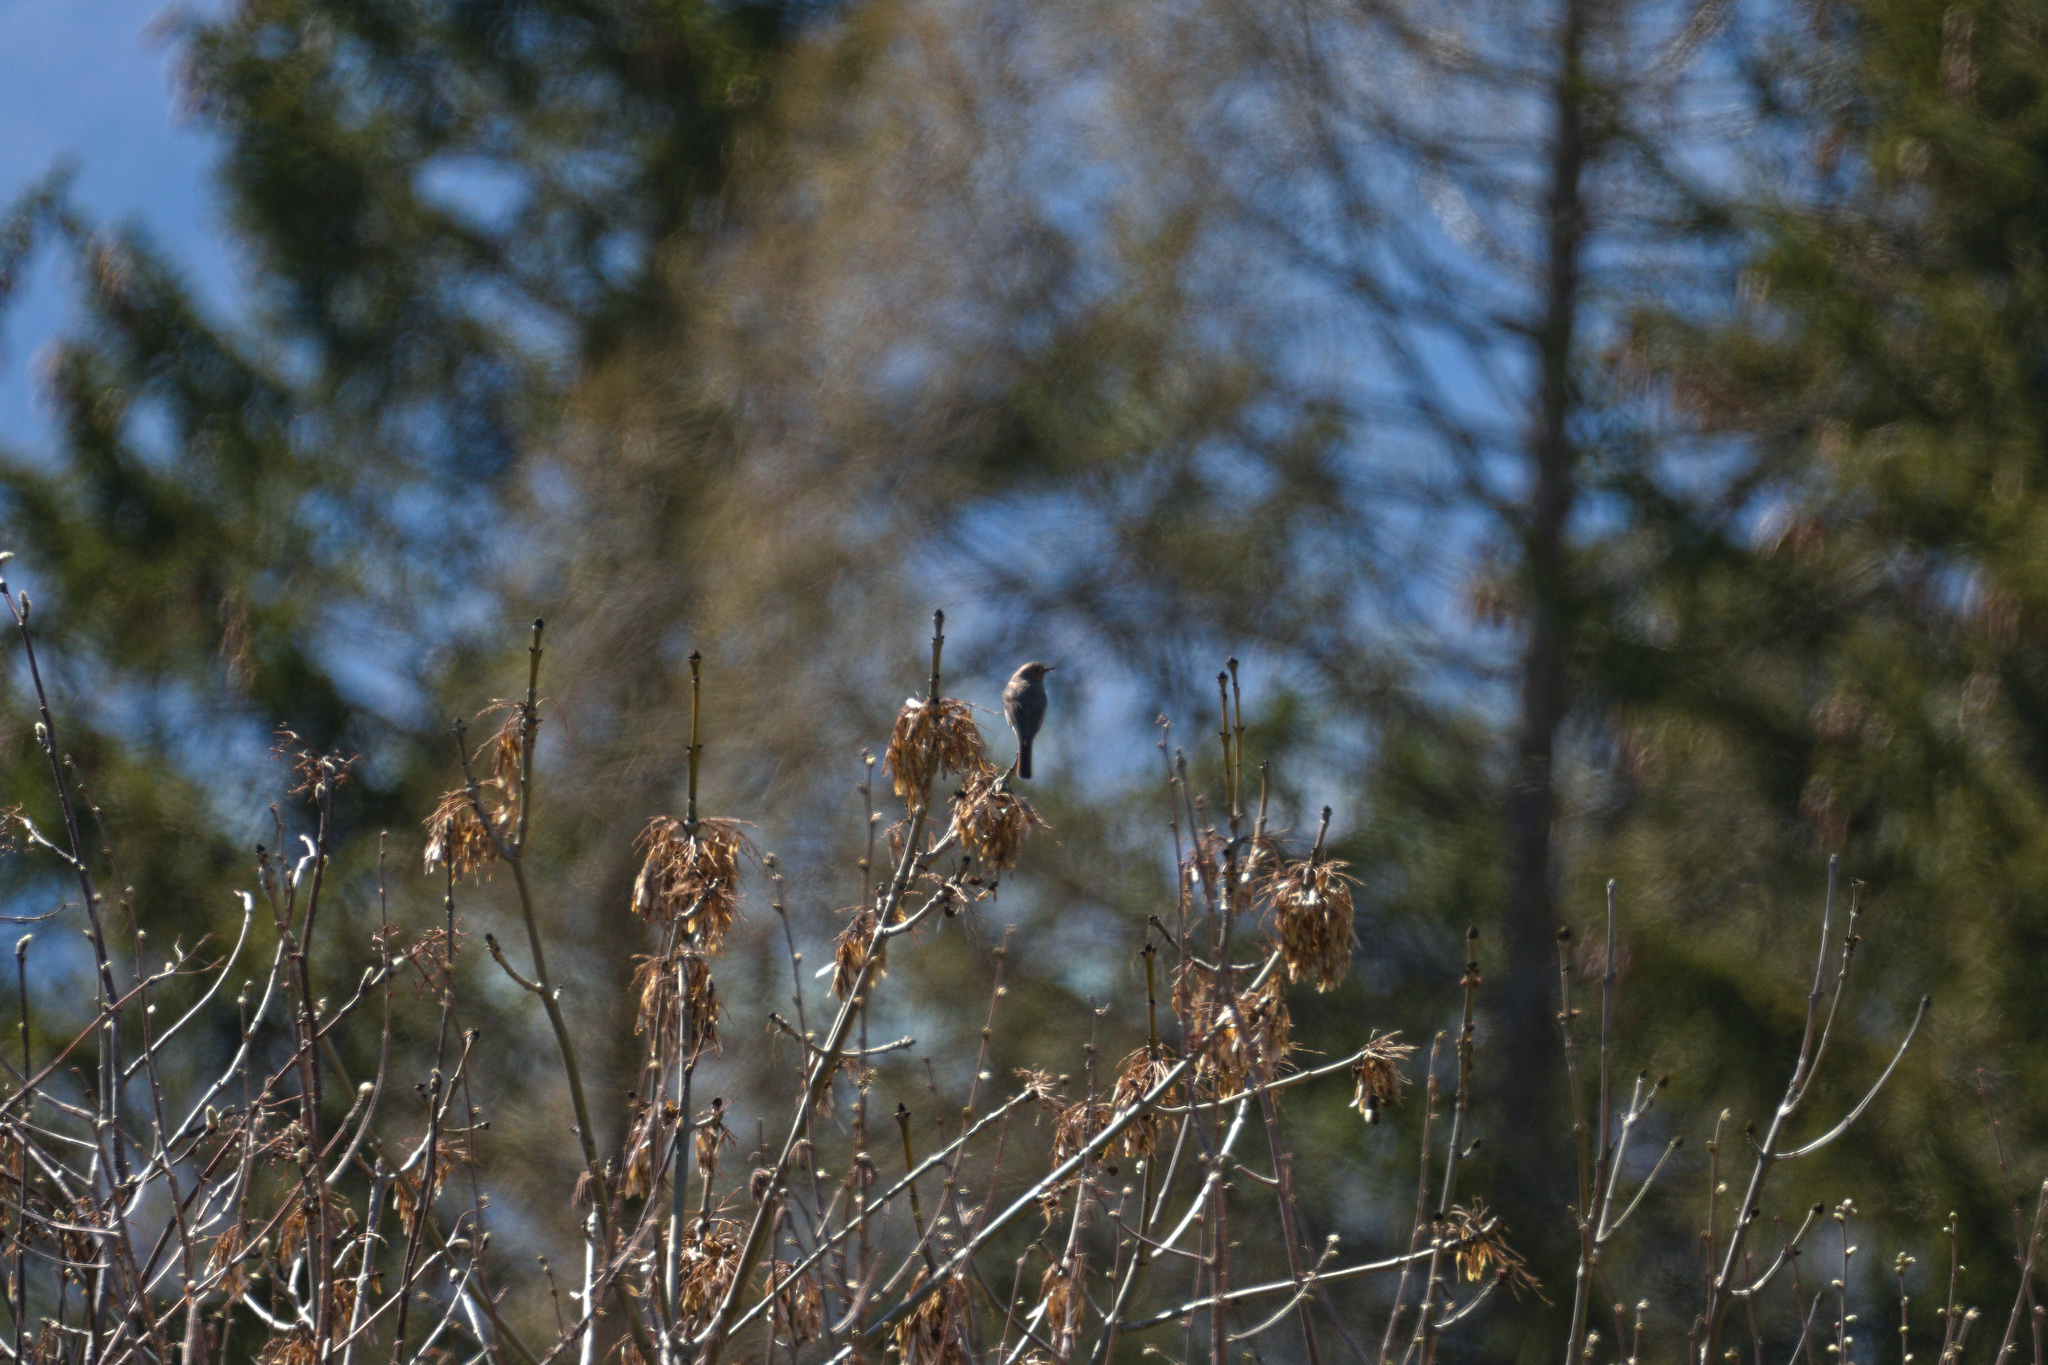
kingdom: Animalia
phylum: Chordata
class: Aves
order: Passeriformes
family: Muscicapidae
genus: Phoenicurus
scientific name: Phoenicurus ochruros
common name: Black redstart
